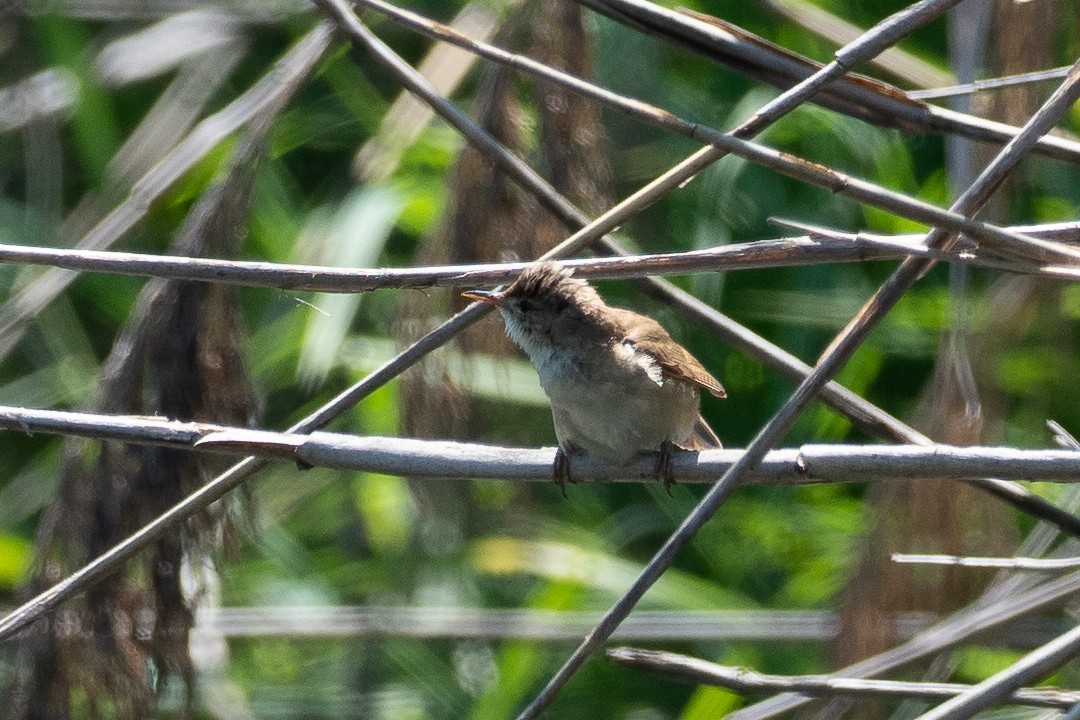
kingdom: Animalia
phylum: Chordata
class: Aves
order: Passeriformes
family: Acrocephalidae
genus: Acrocephalus
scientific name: Acrocephalus scirpaceus
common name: Eurasian reed warbler
